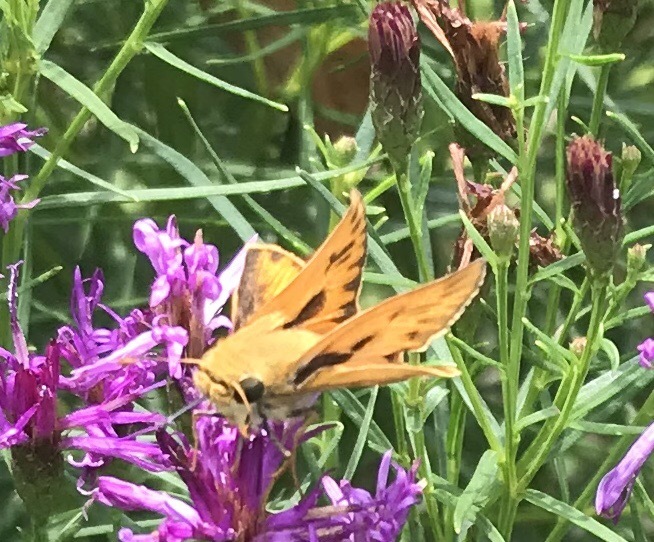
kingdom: Animalia
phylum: Arthropoda
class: Insecta
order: Lepidoptera
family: Hesperiidae
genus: Hylephila
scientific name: Hylephila phyleus
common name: Fiery skipper
